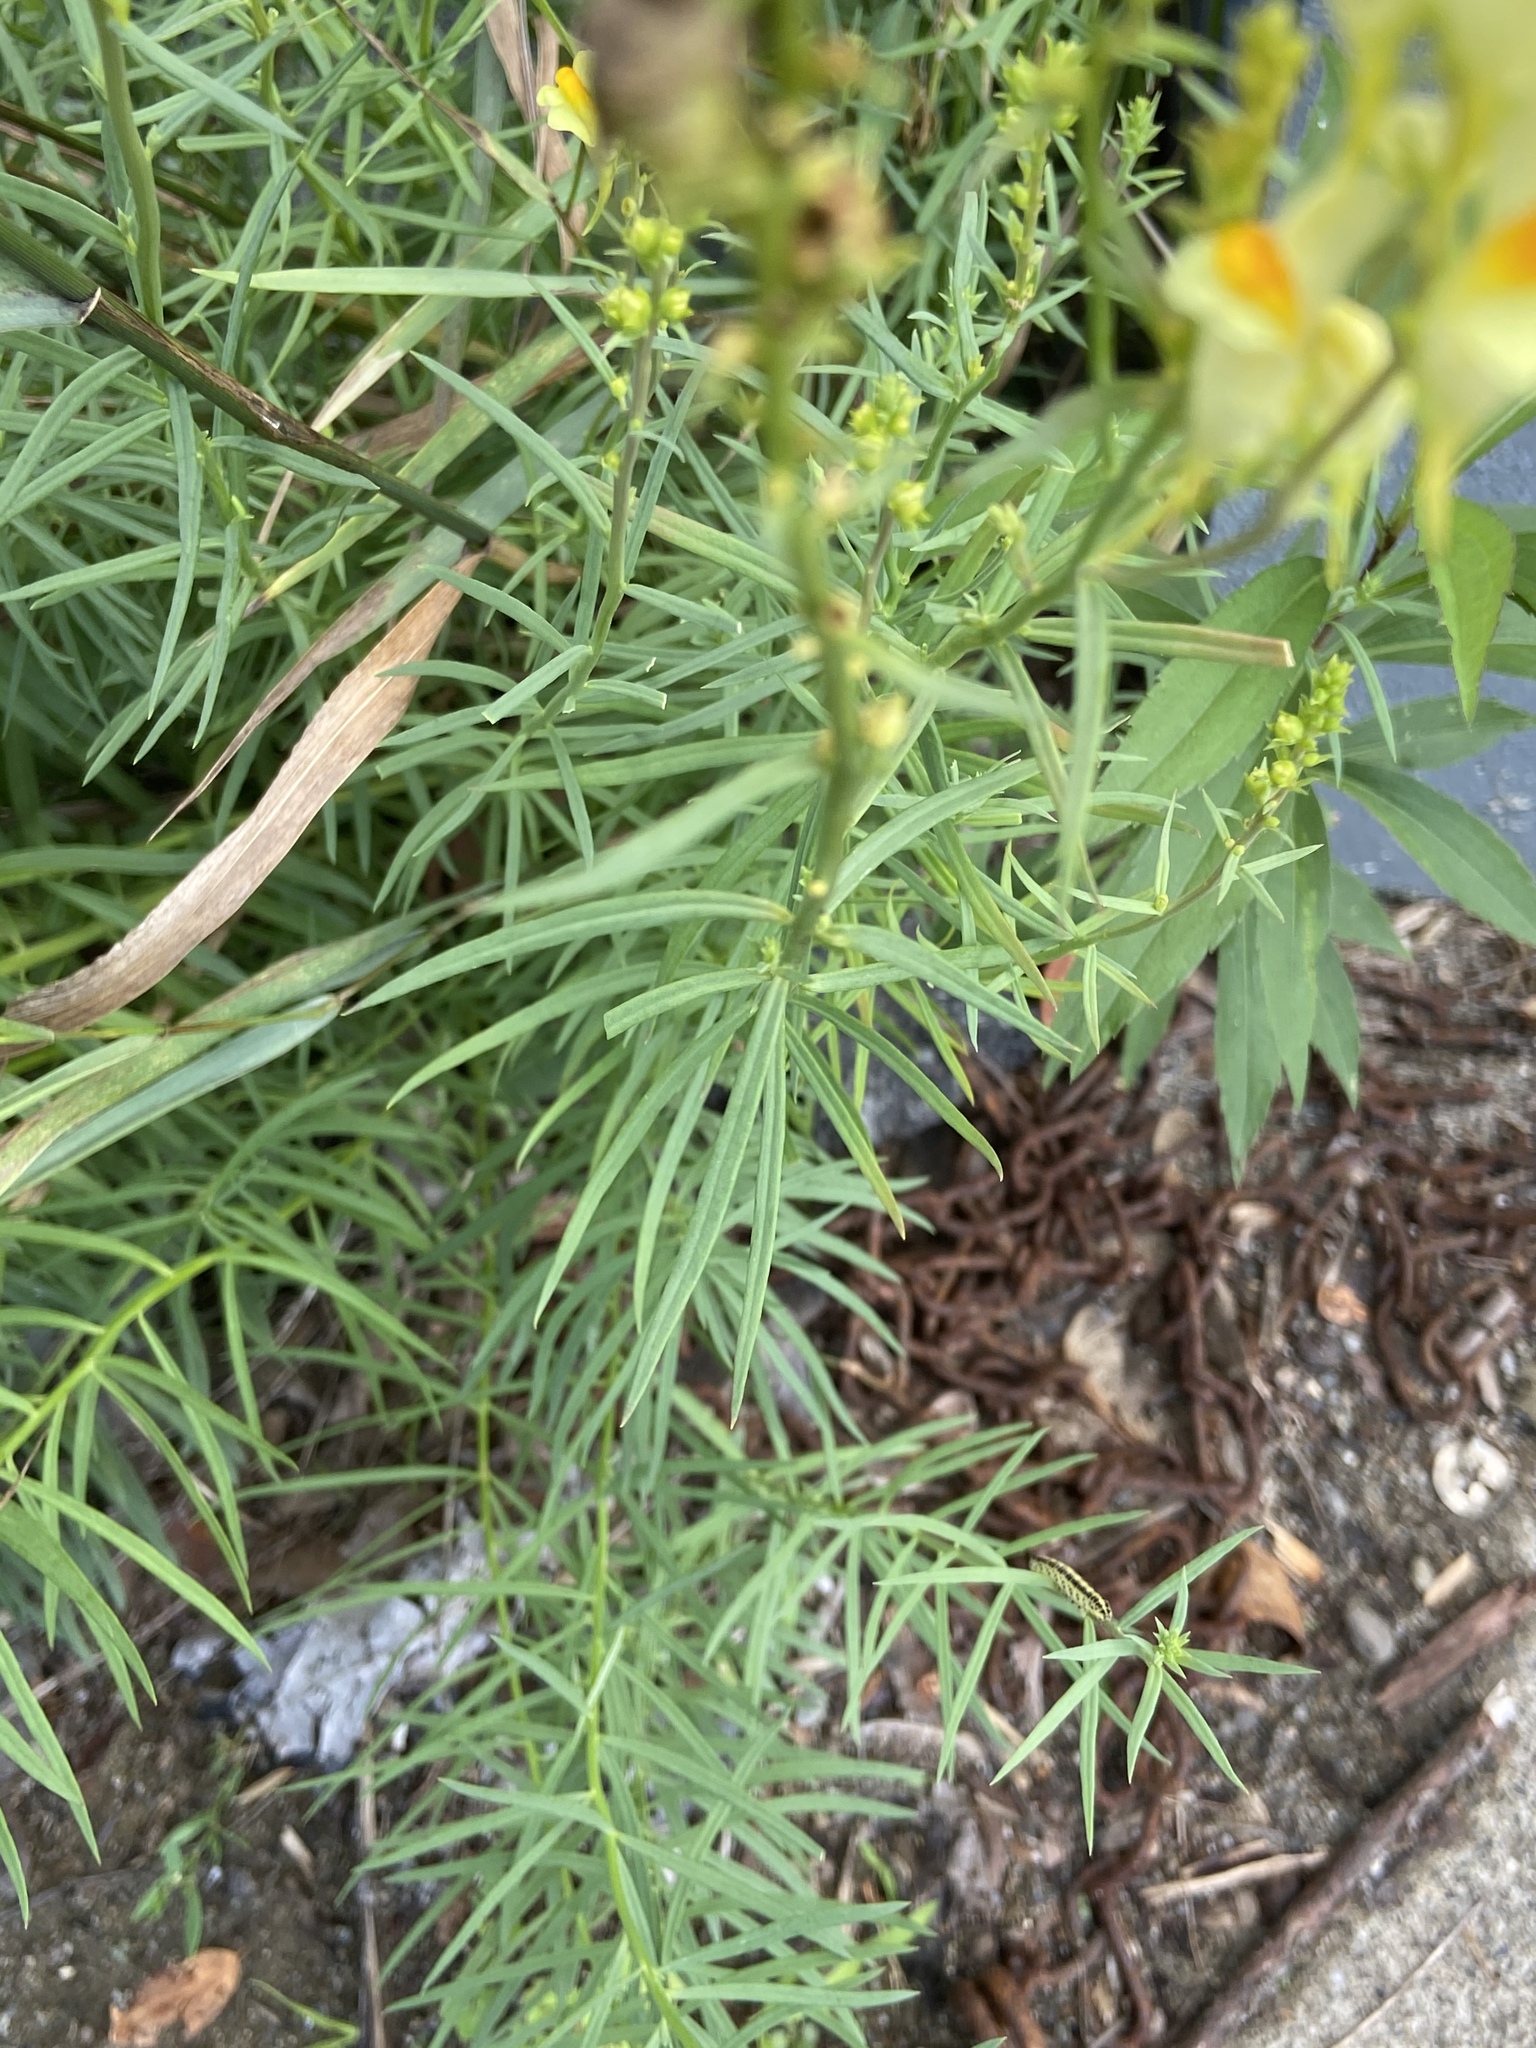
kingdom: Plantae
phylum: Tracheophyta
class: Magnoliopsida
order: Lamiales
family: Plantaginaceae
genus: Linaria
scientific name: Linaria vulgaris
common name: Butter and eggs
